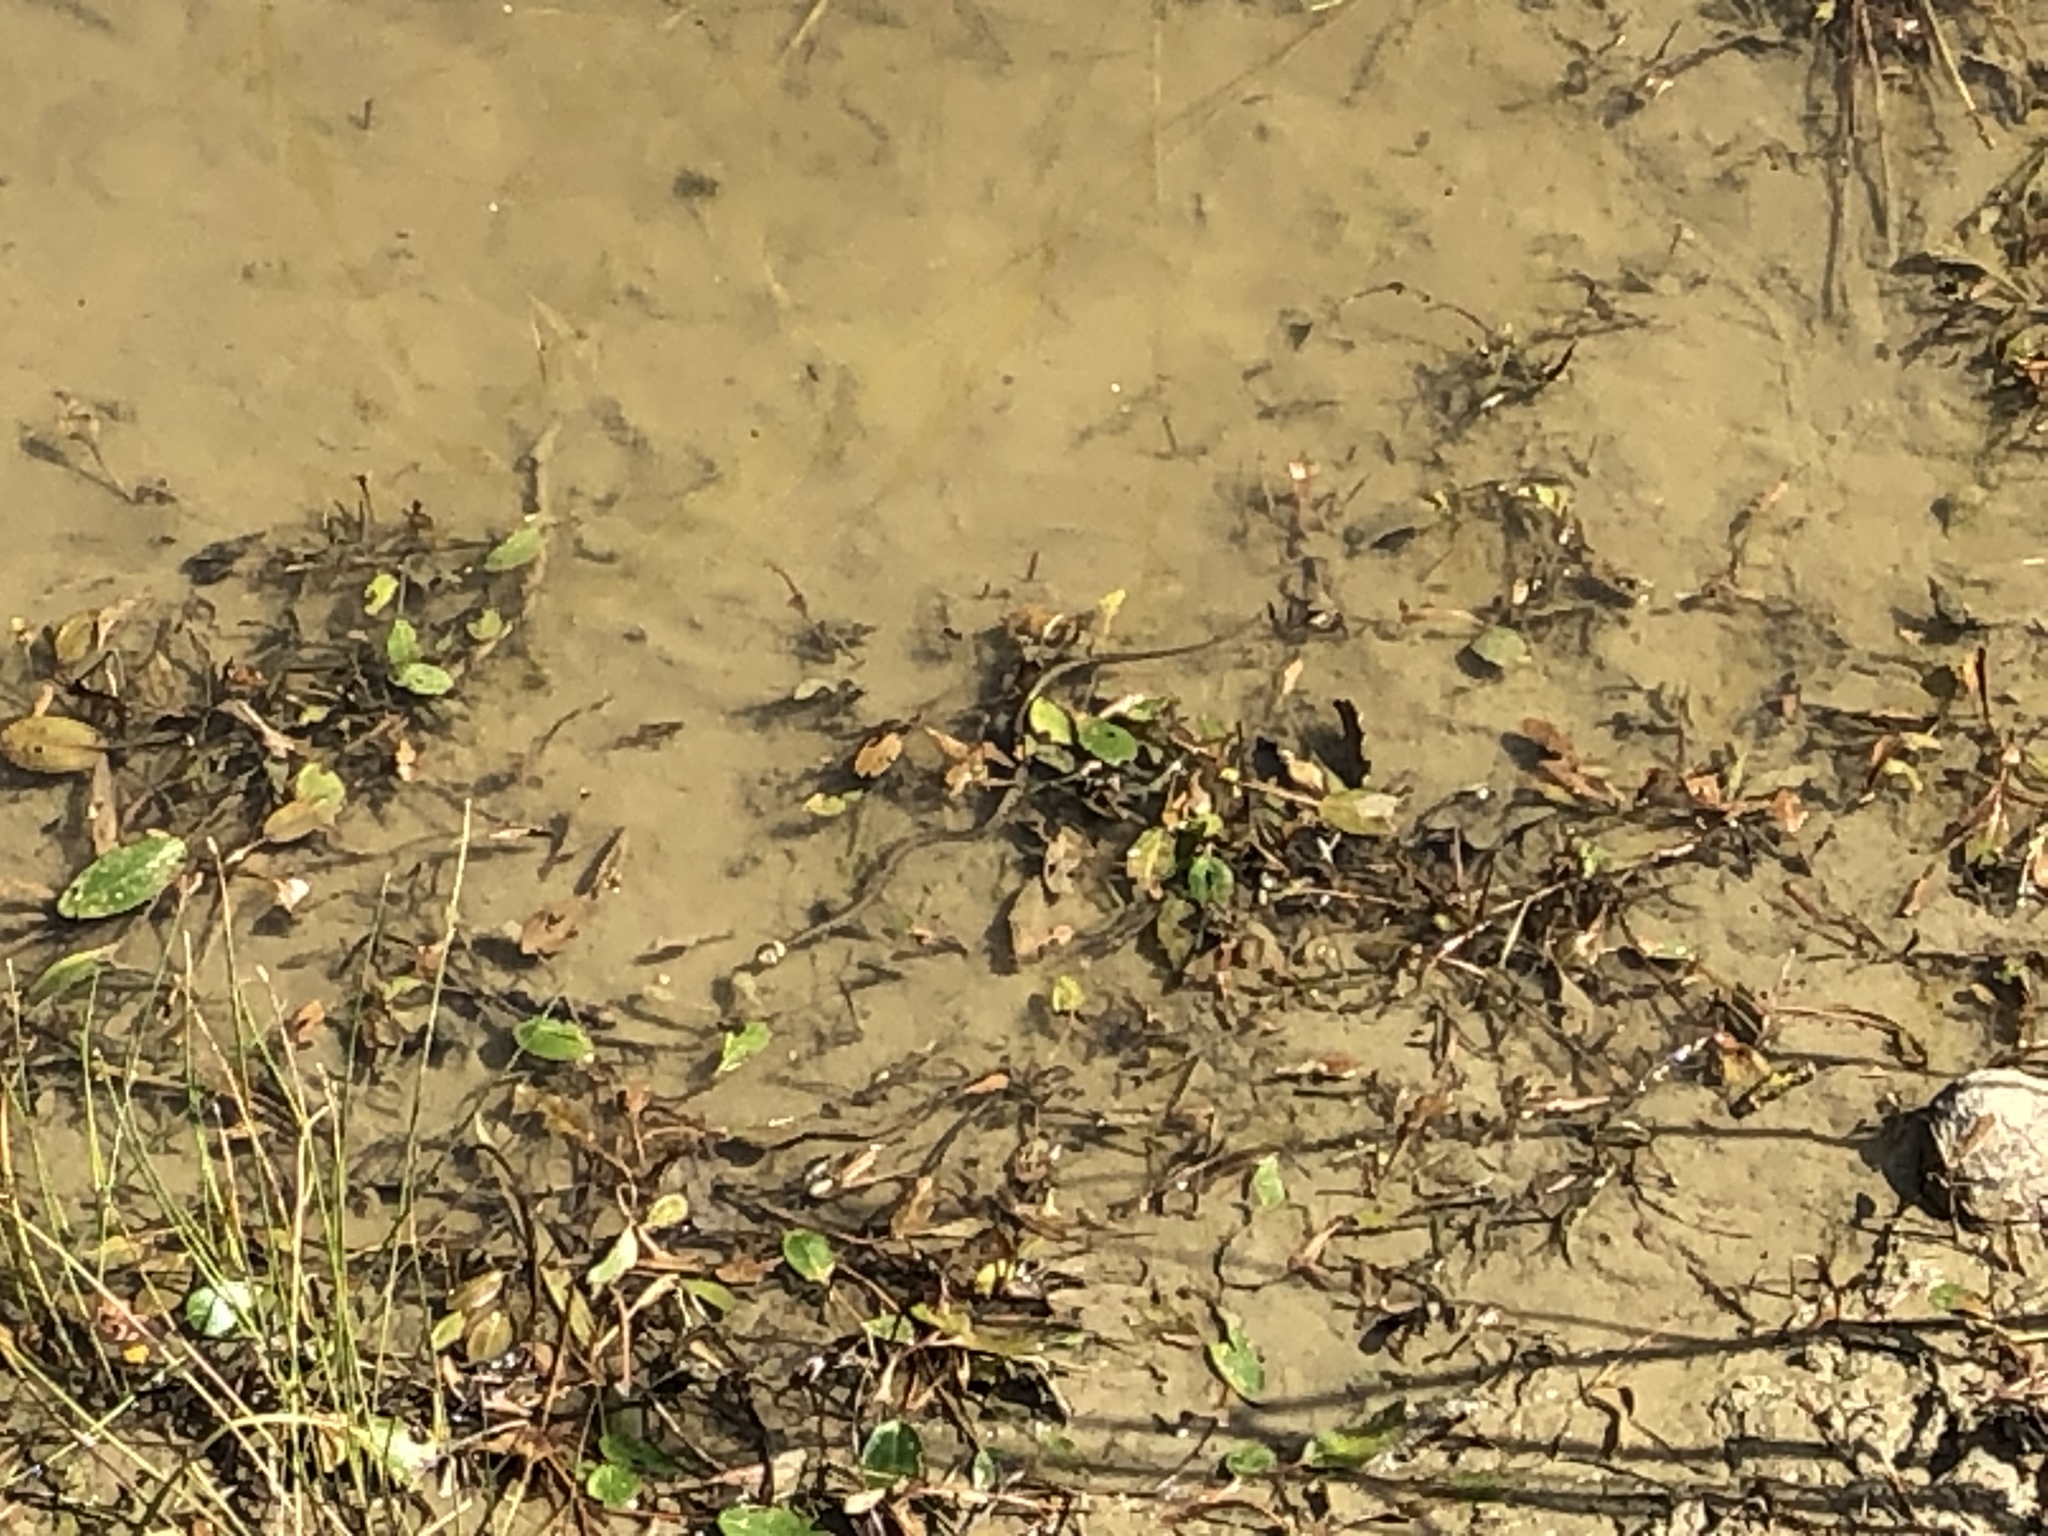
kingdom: Animalia
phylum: Chordata
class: Squamata
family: Colubridae
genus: Natrix
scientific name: Natrix helvetica
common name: Banded grass snake
